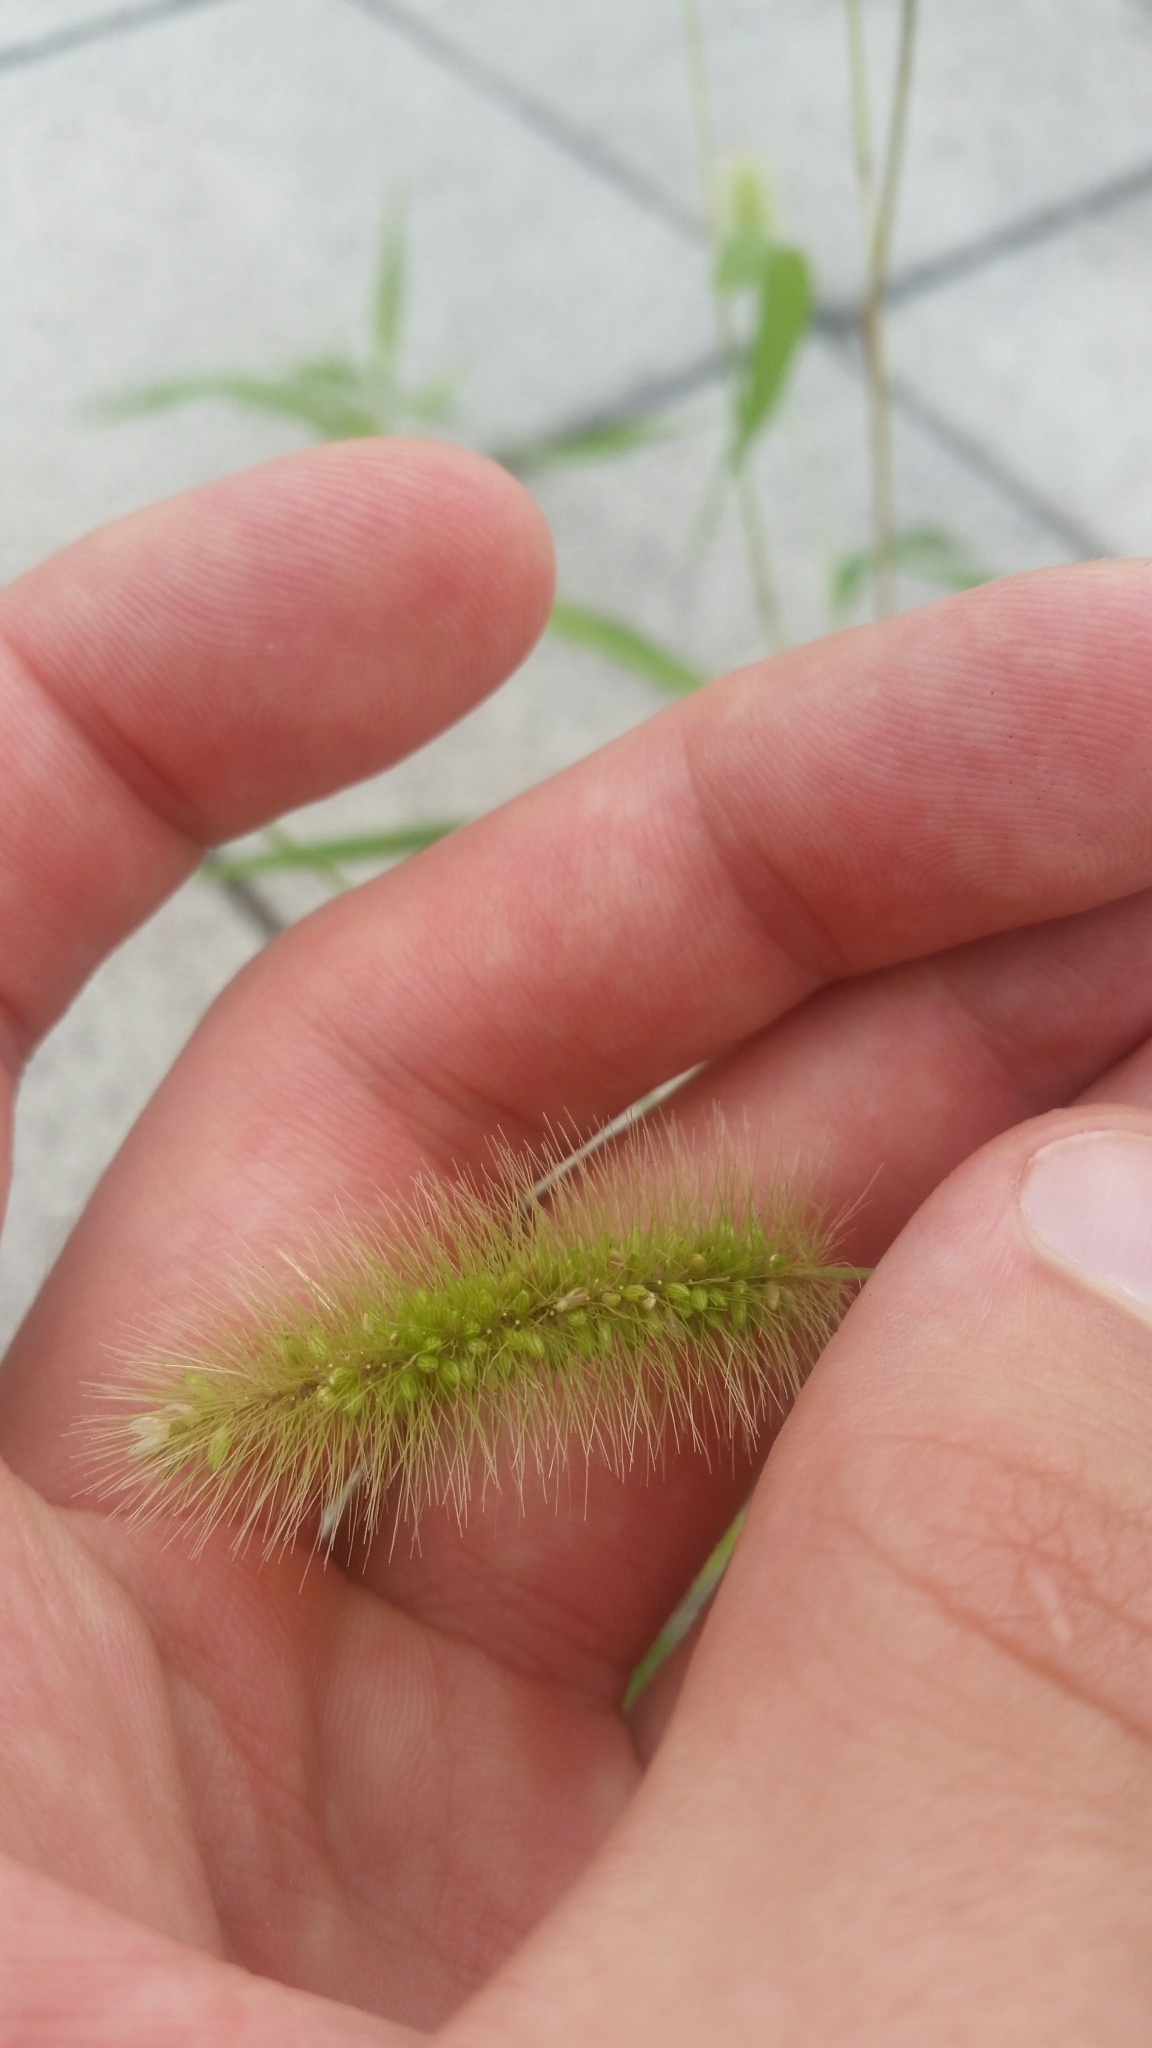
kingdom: Plantae
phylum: Tracheophyta
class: Liliopsida
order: Poales
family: Poaceae
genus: Setaria
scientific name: Setaria viridis
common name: Green bristlegrass
